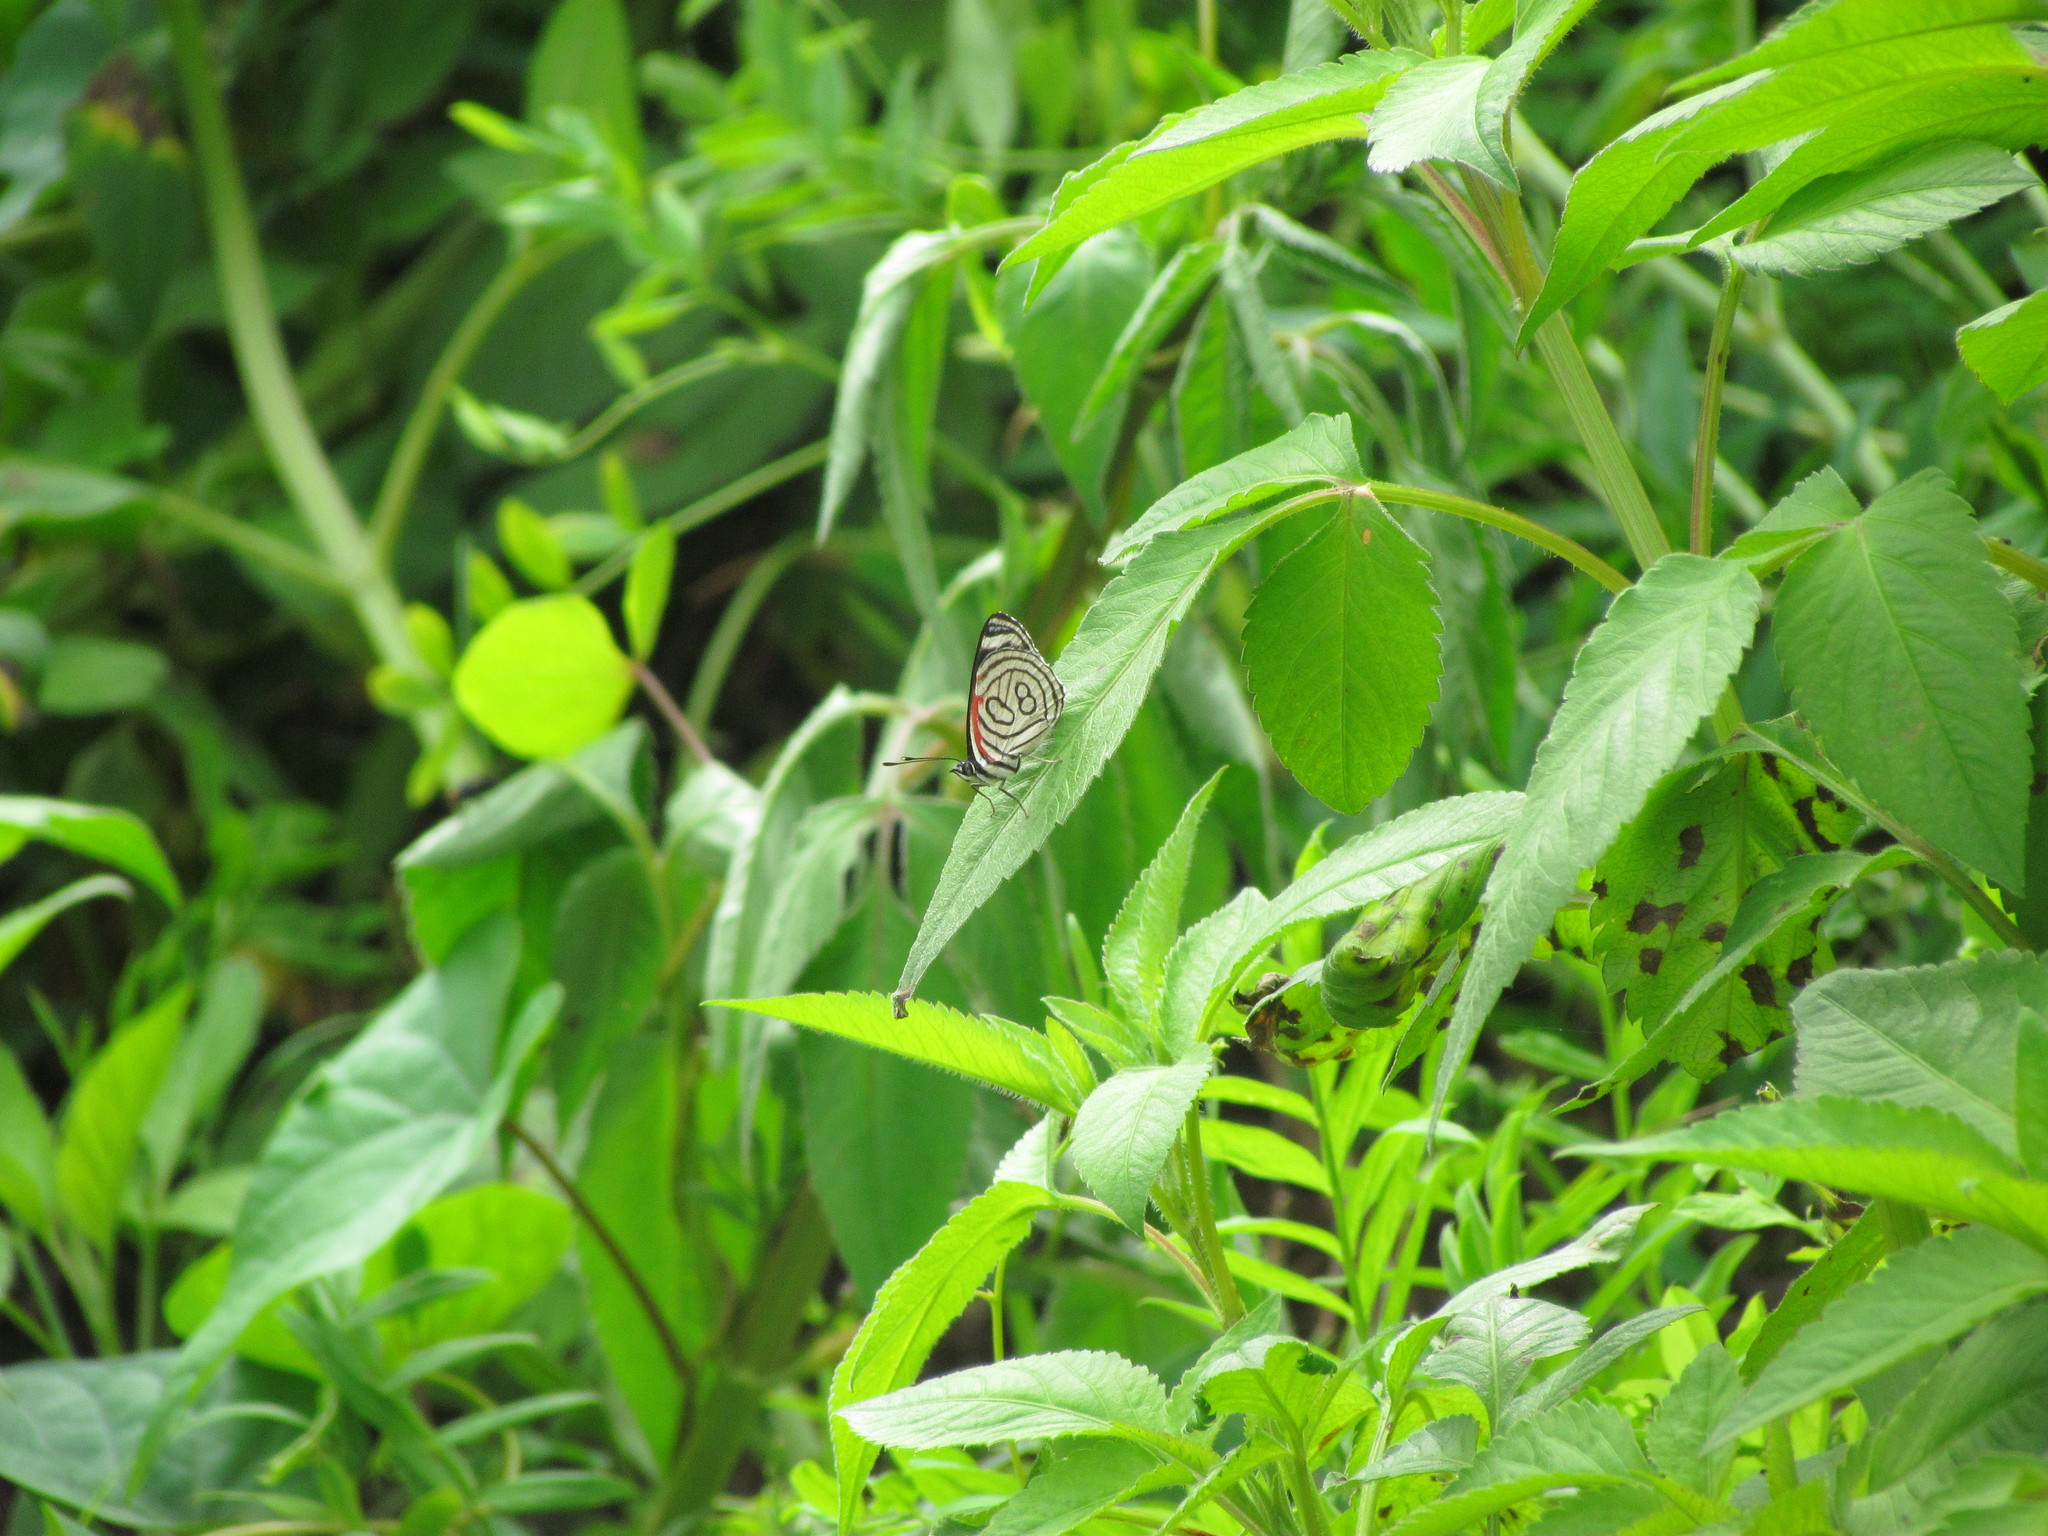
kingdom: Animalia
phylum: Arthropoda
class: Insecta
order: Lepidoptera
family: Nymphalidae
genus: Diaethria
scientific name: Diaethria candrena
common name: Number eighty
